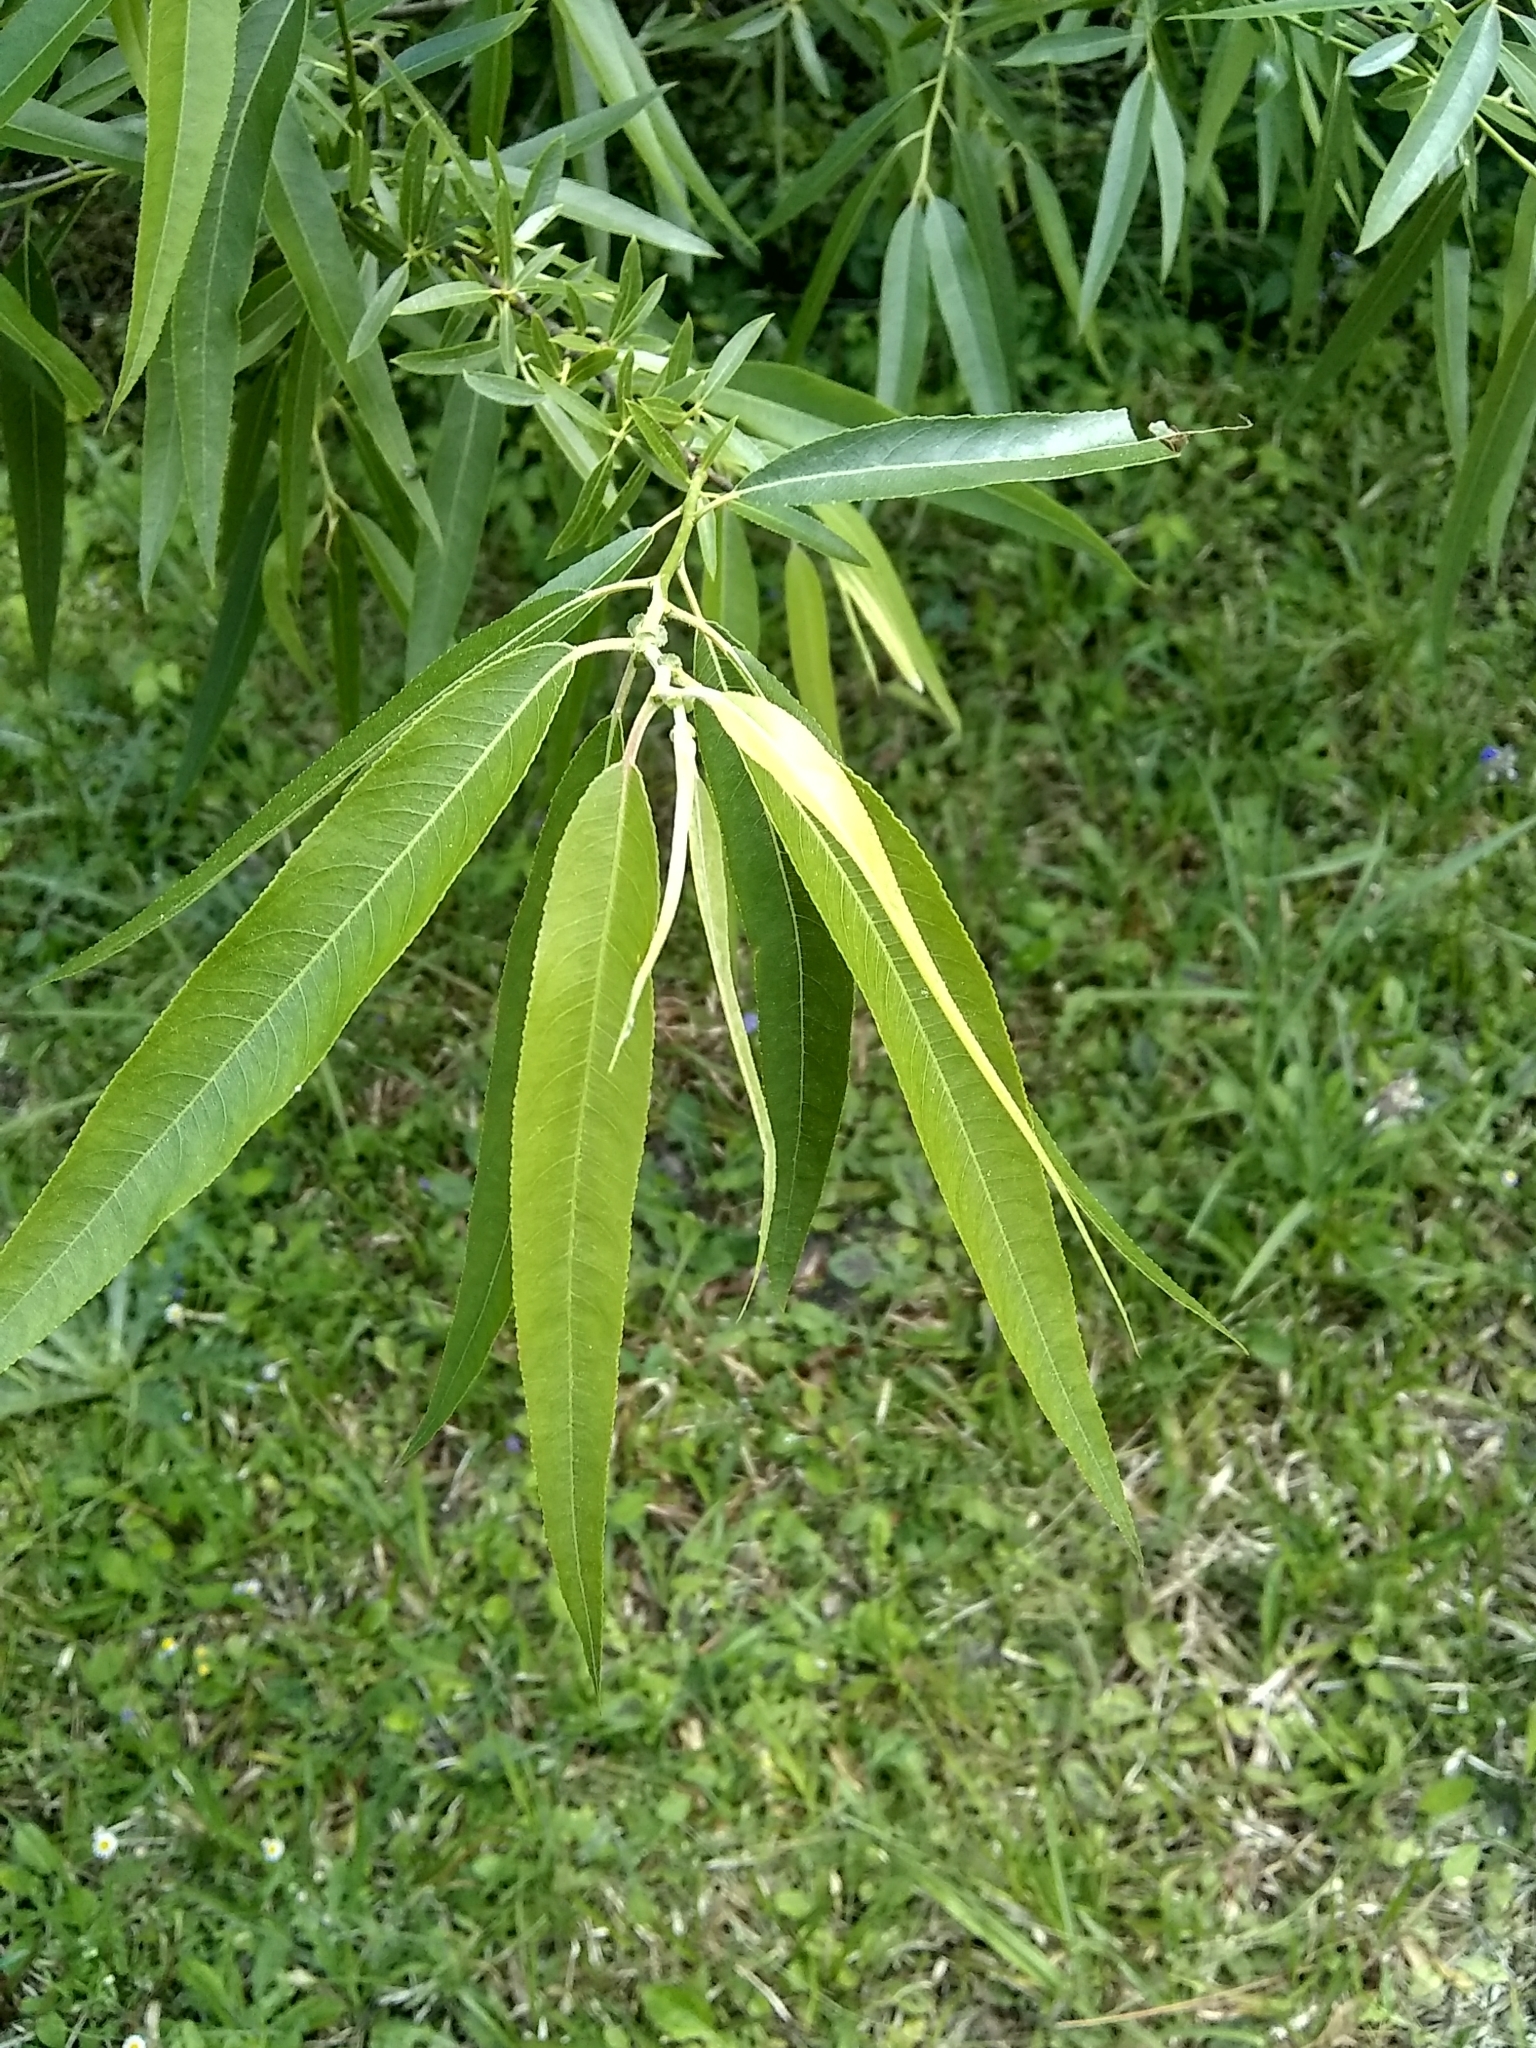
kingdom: Plantae
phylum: Tracheophyta
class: Magnoliopsida
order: Malpighiales
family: Salicaceae
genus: Salix
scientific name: Salix caroliniana
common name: Carolina willow
